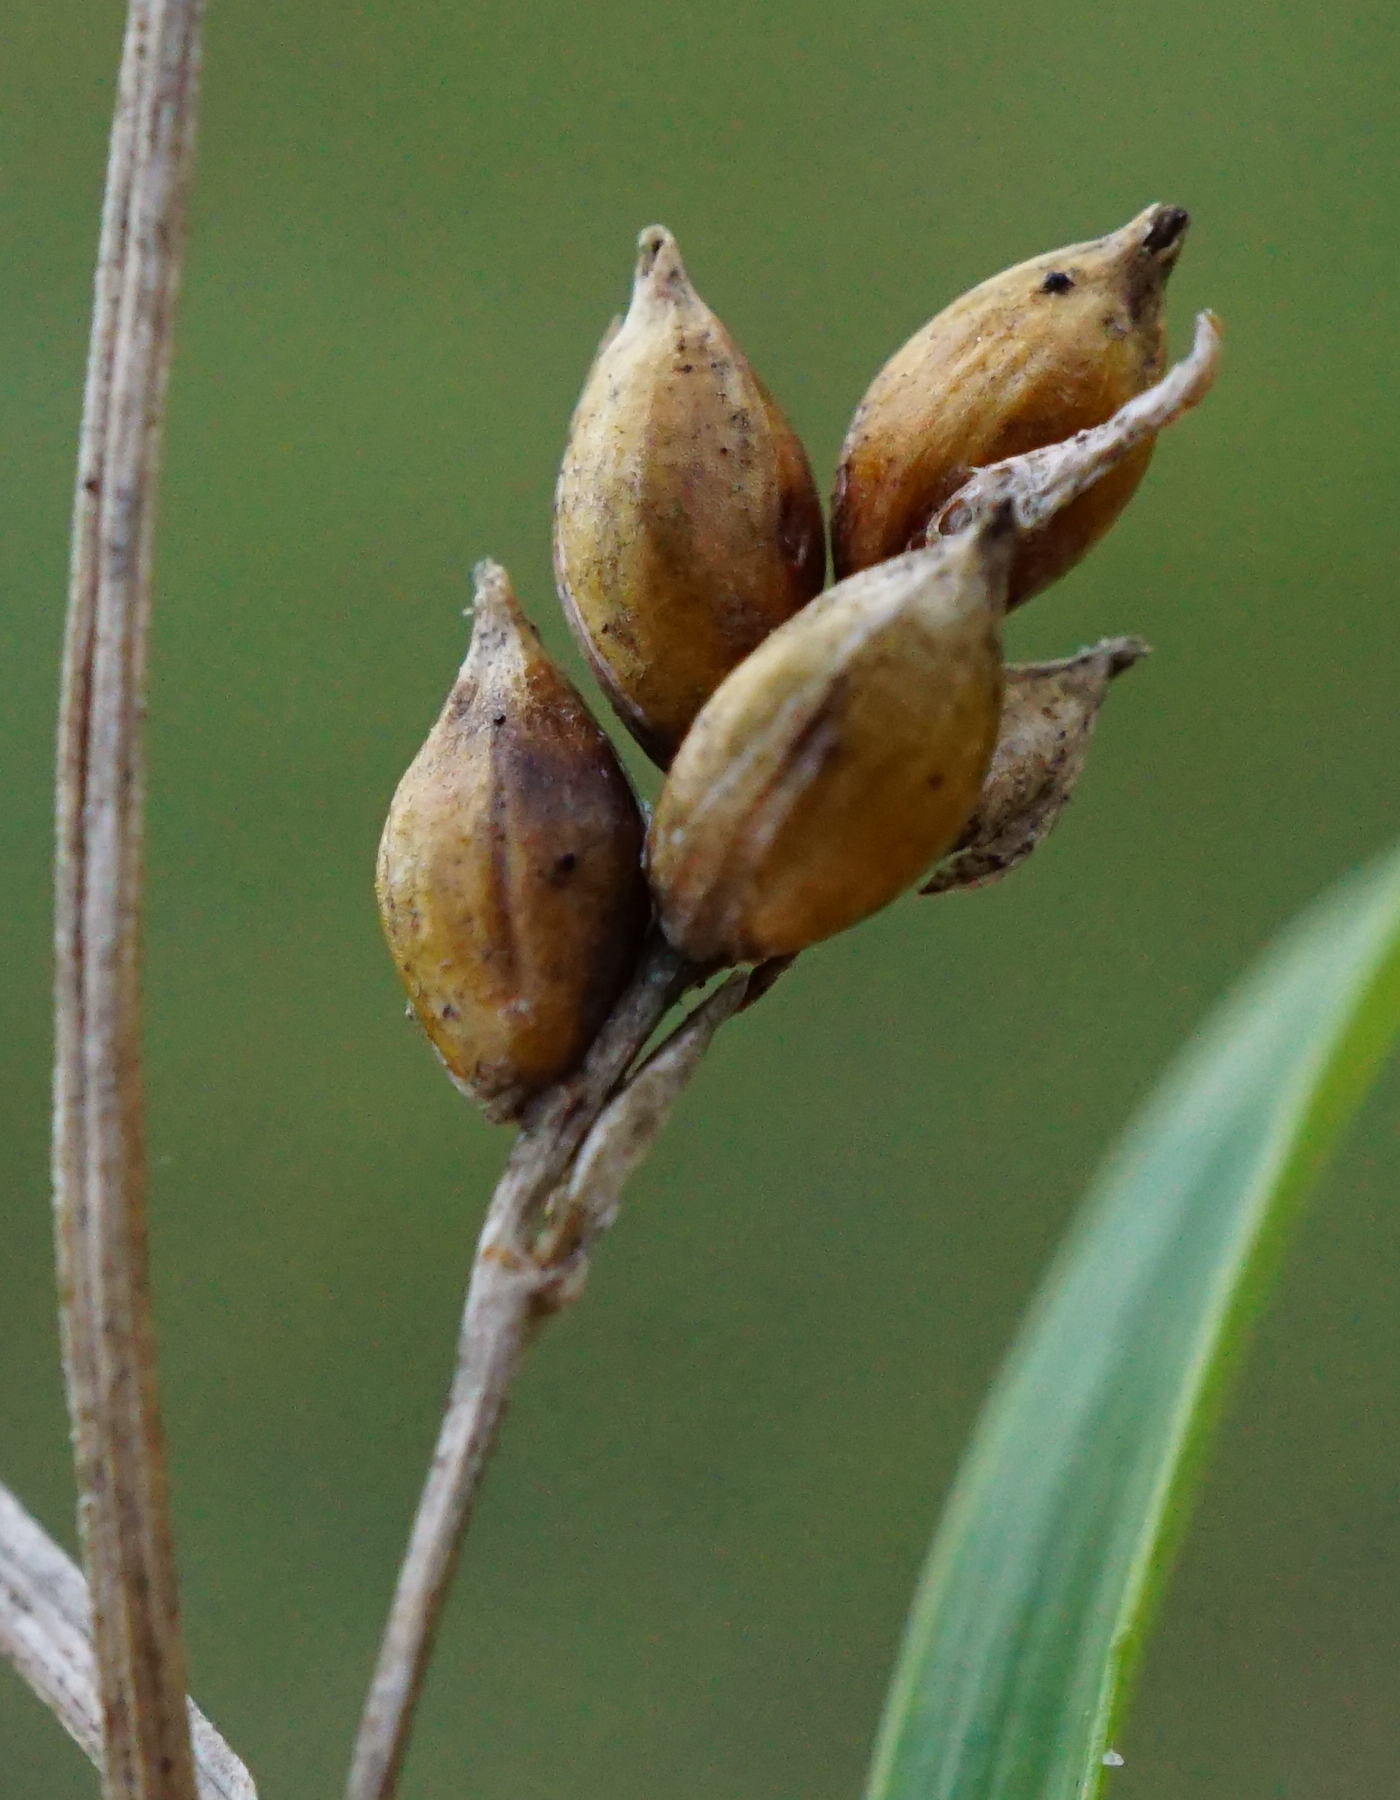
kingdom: Plantae
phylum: Tracheophyta
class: Liliopsida
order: Poales
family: Cyperaceae
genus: Carex
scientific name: Carex liparocarpos
